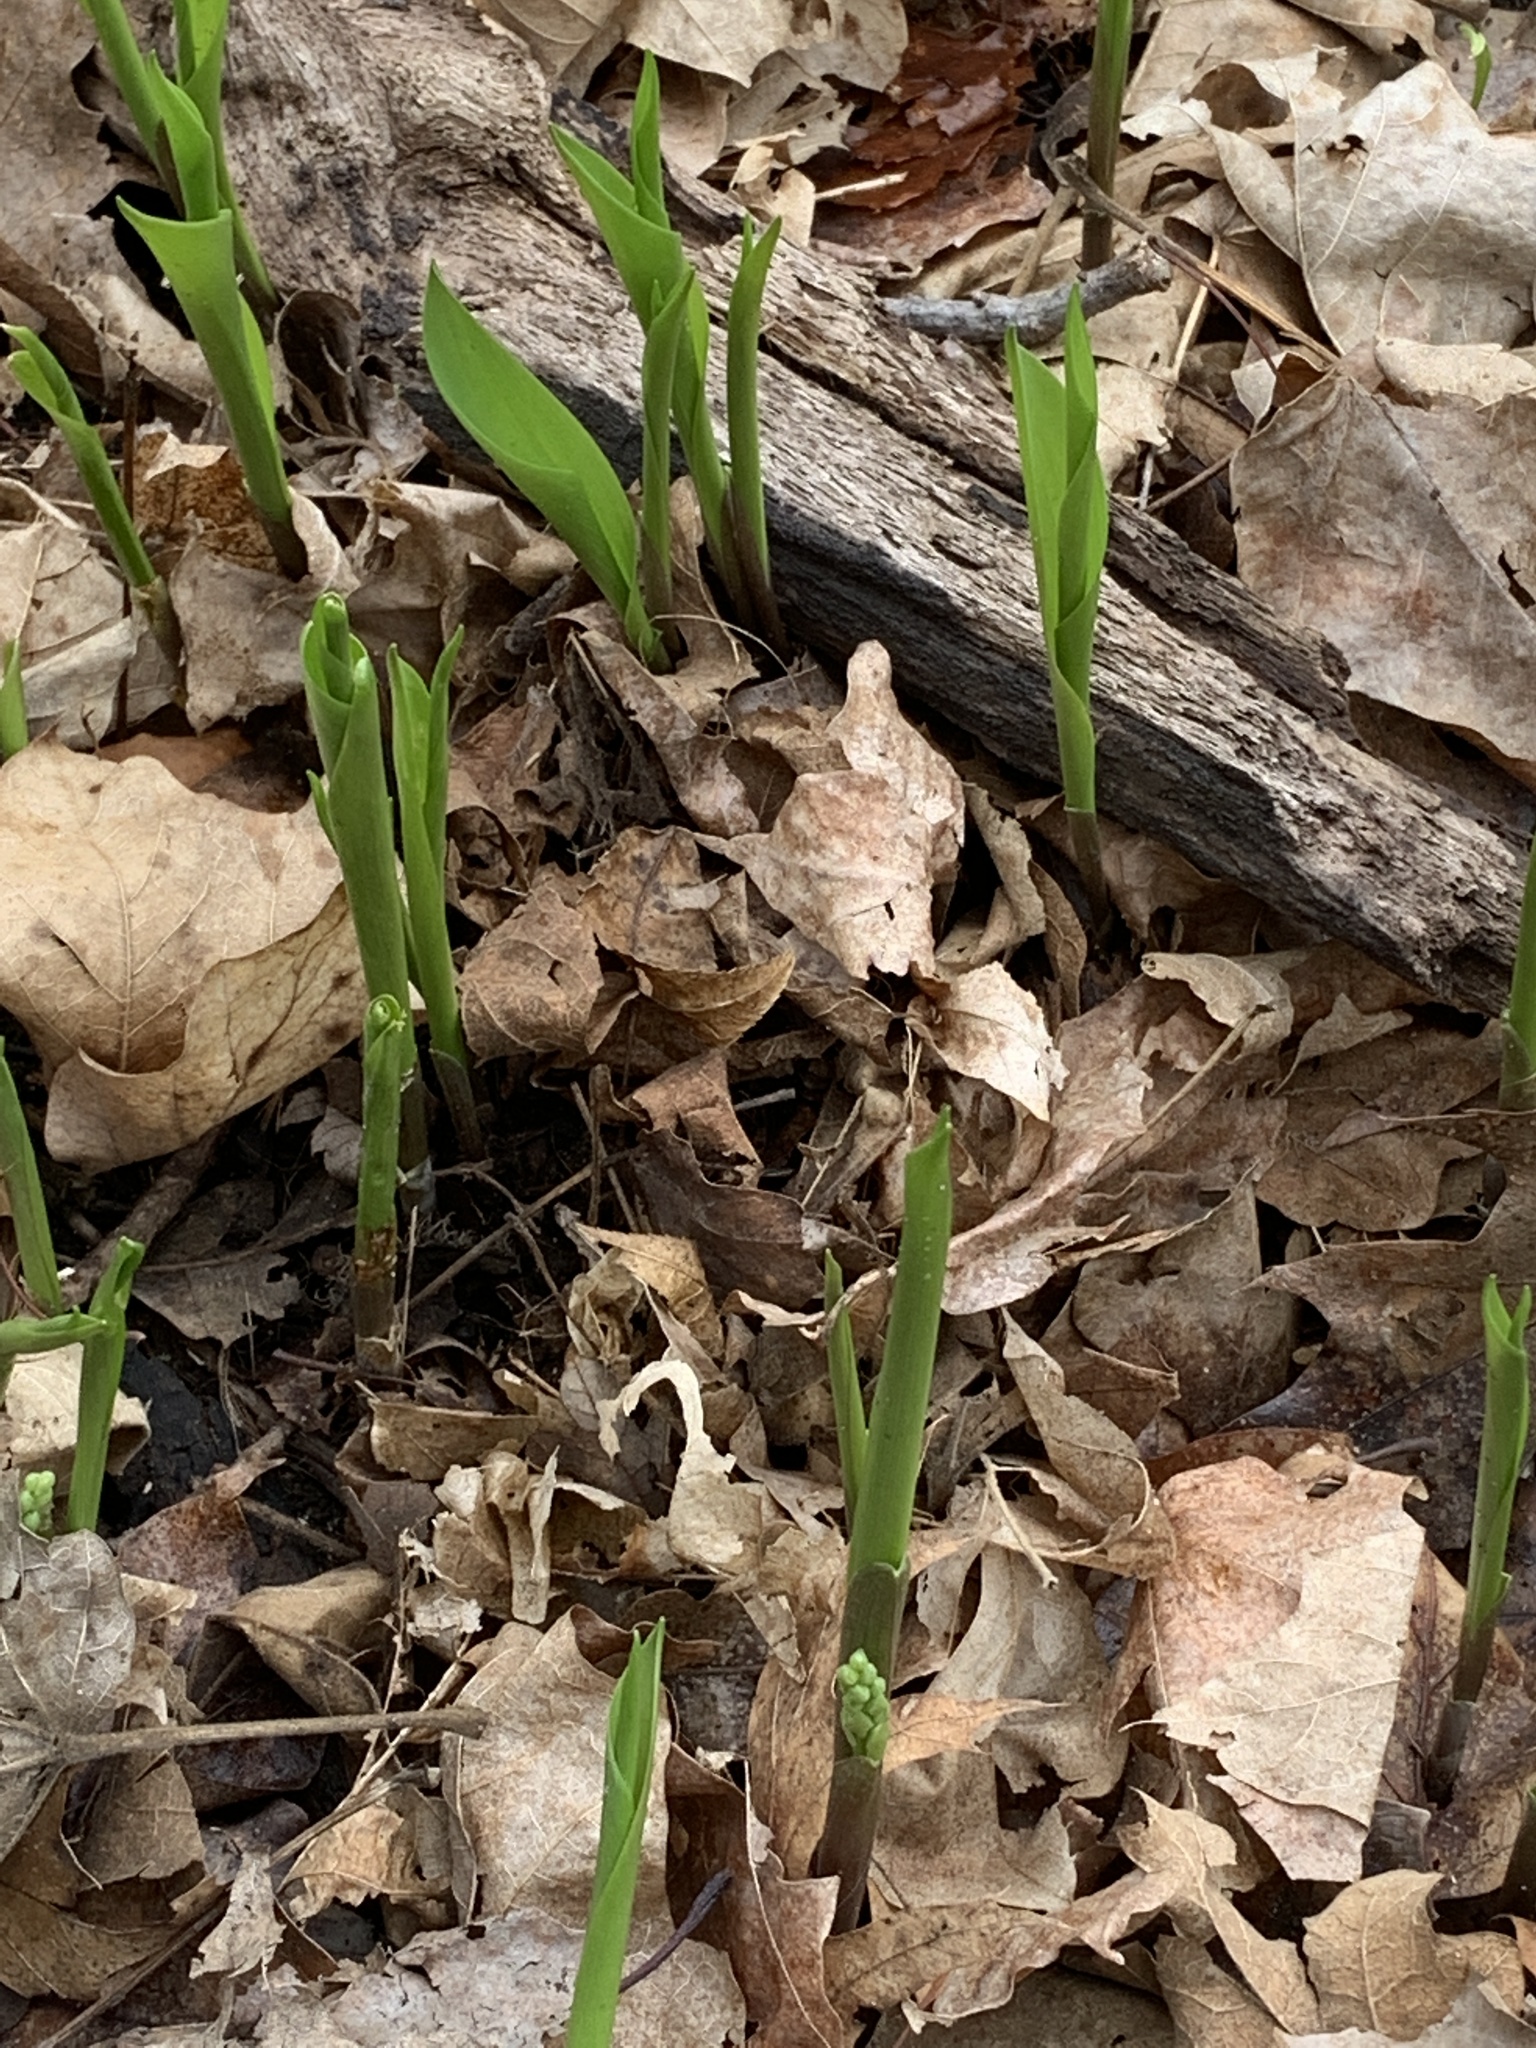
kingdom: Plantae
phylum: Tracheophyta
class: Liliopsida
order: Asparagales
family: Asparagaceae
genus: Convallaria
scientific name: Convallaria majalis
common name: Lily-of-the-valley
